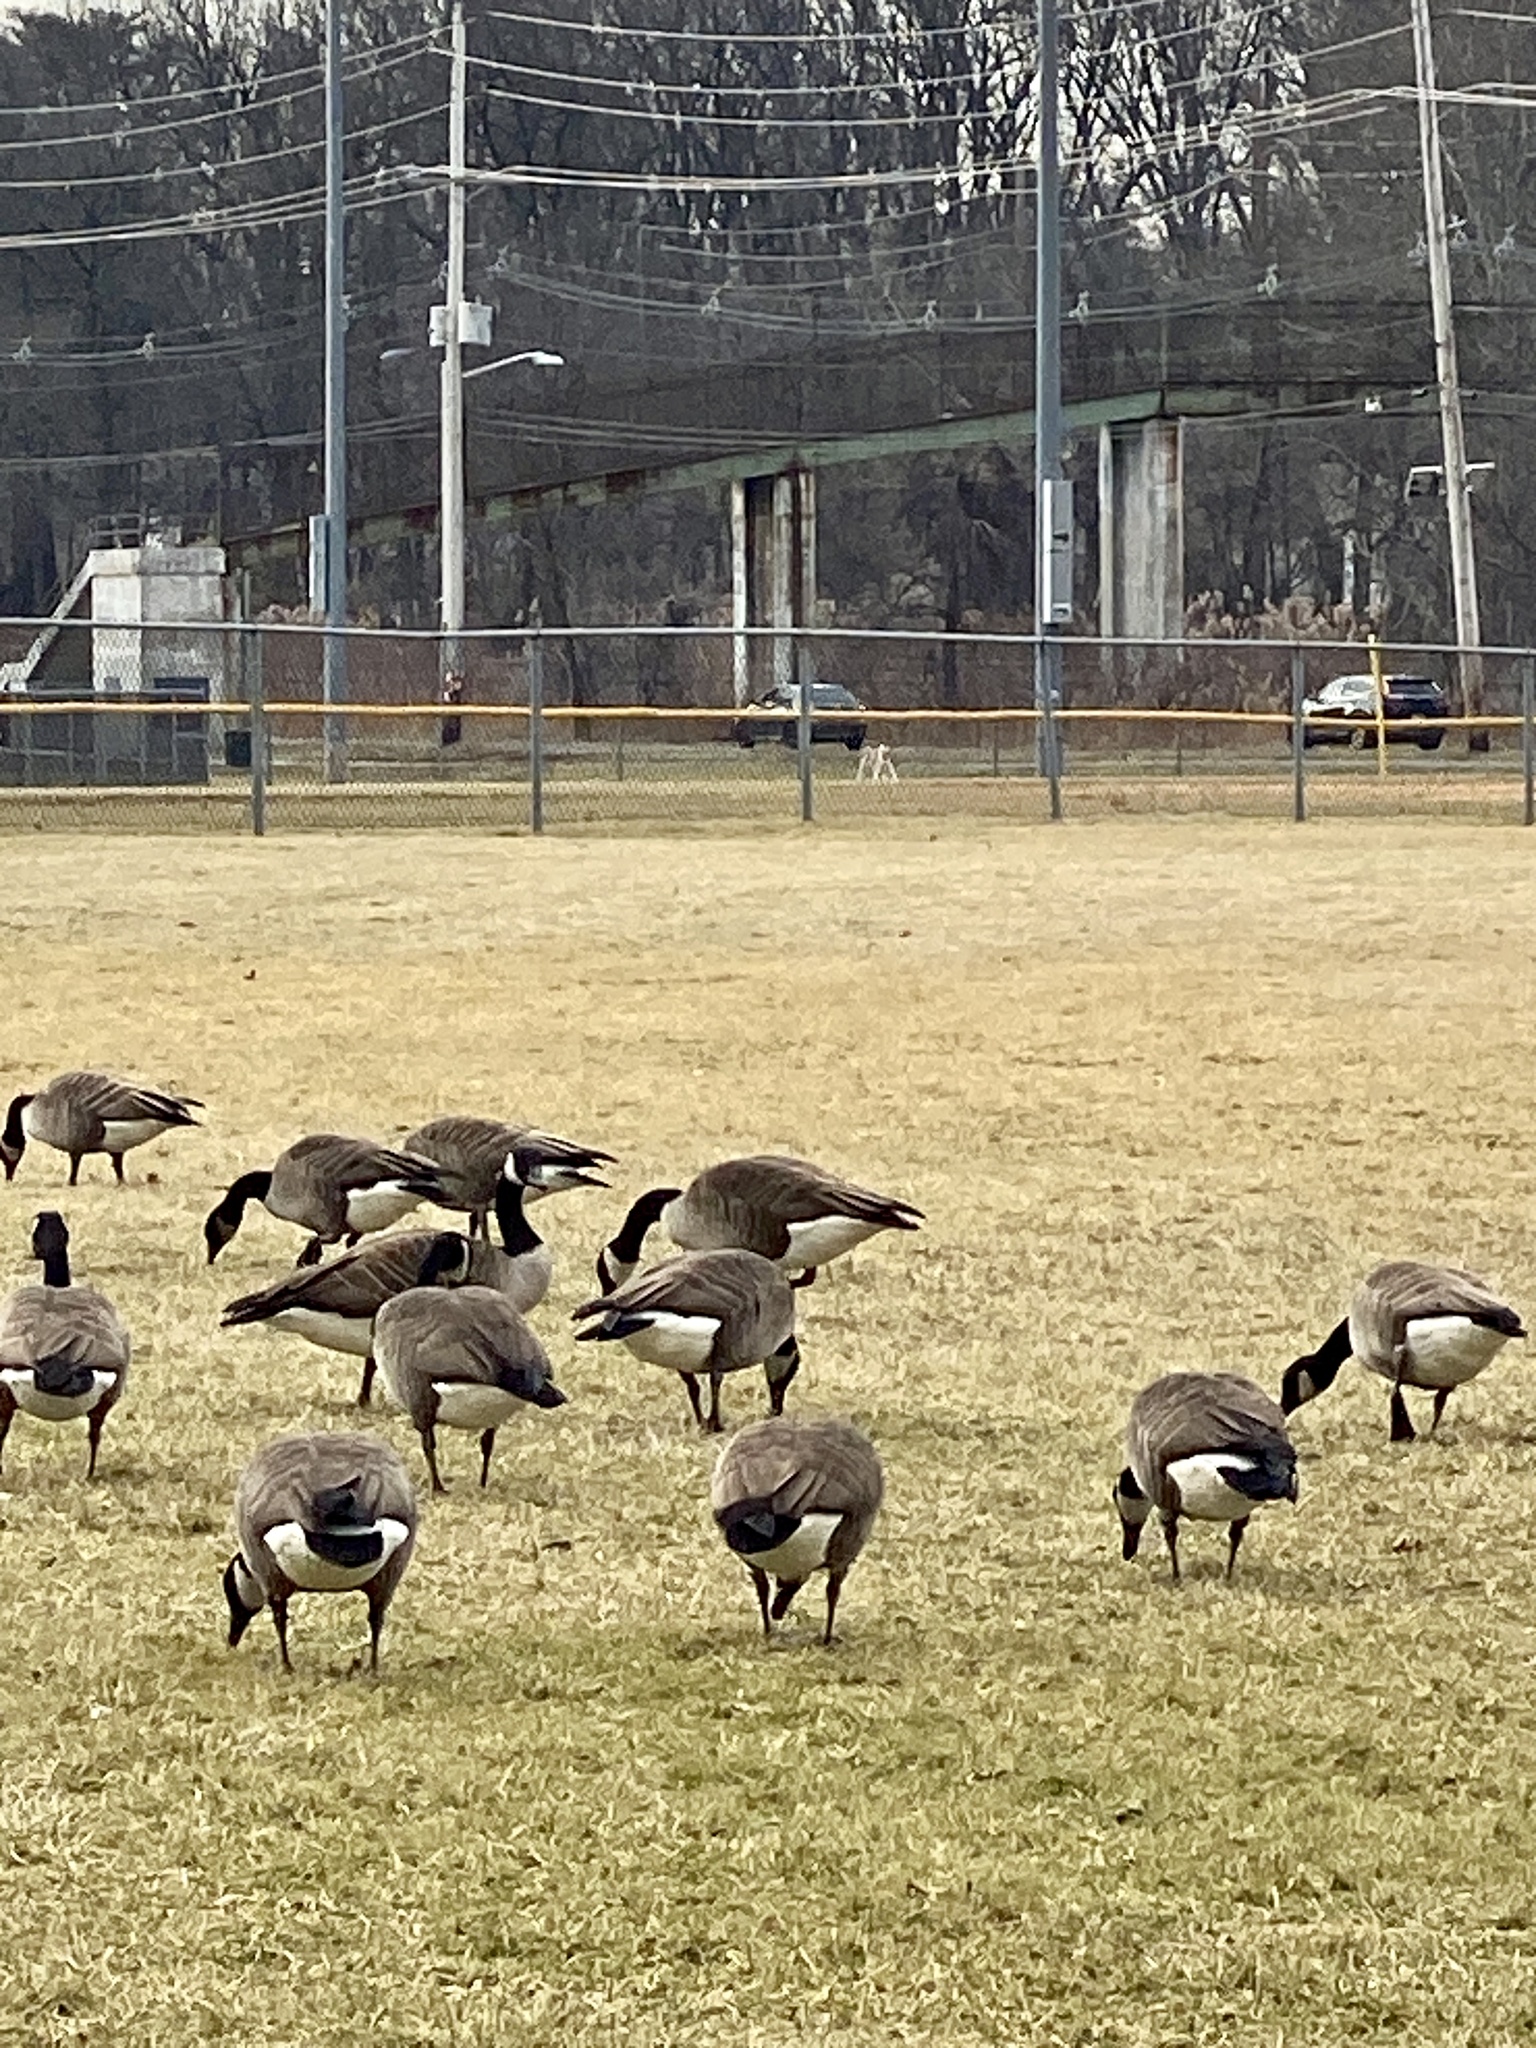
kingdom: Animalia
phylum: Chordata
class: Aves
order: Anseriformes
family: Anatidae
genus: Branta
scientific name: Branta canadensis
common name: Canada goose
